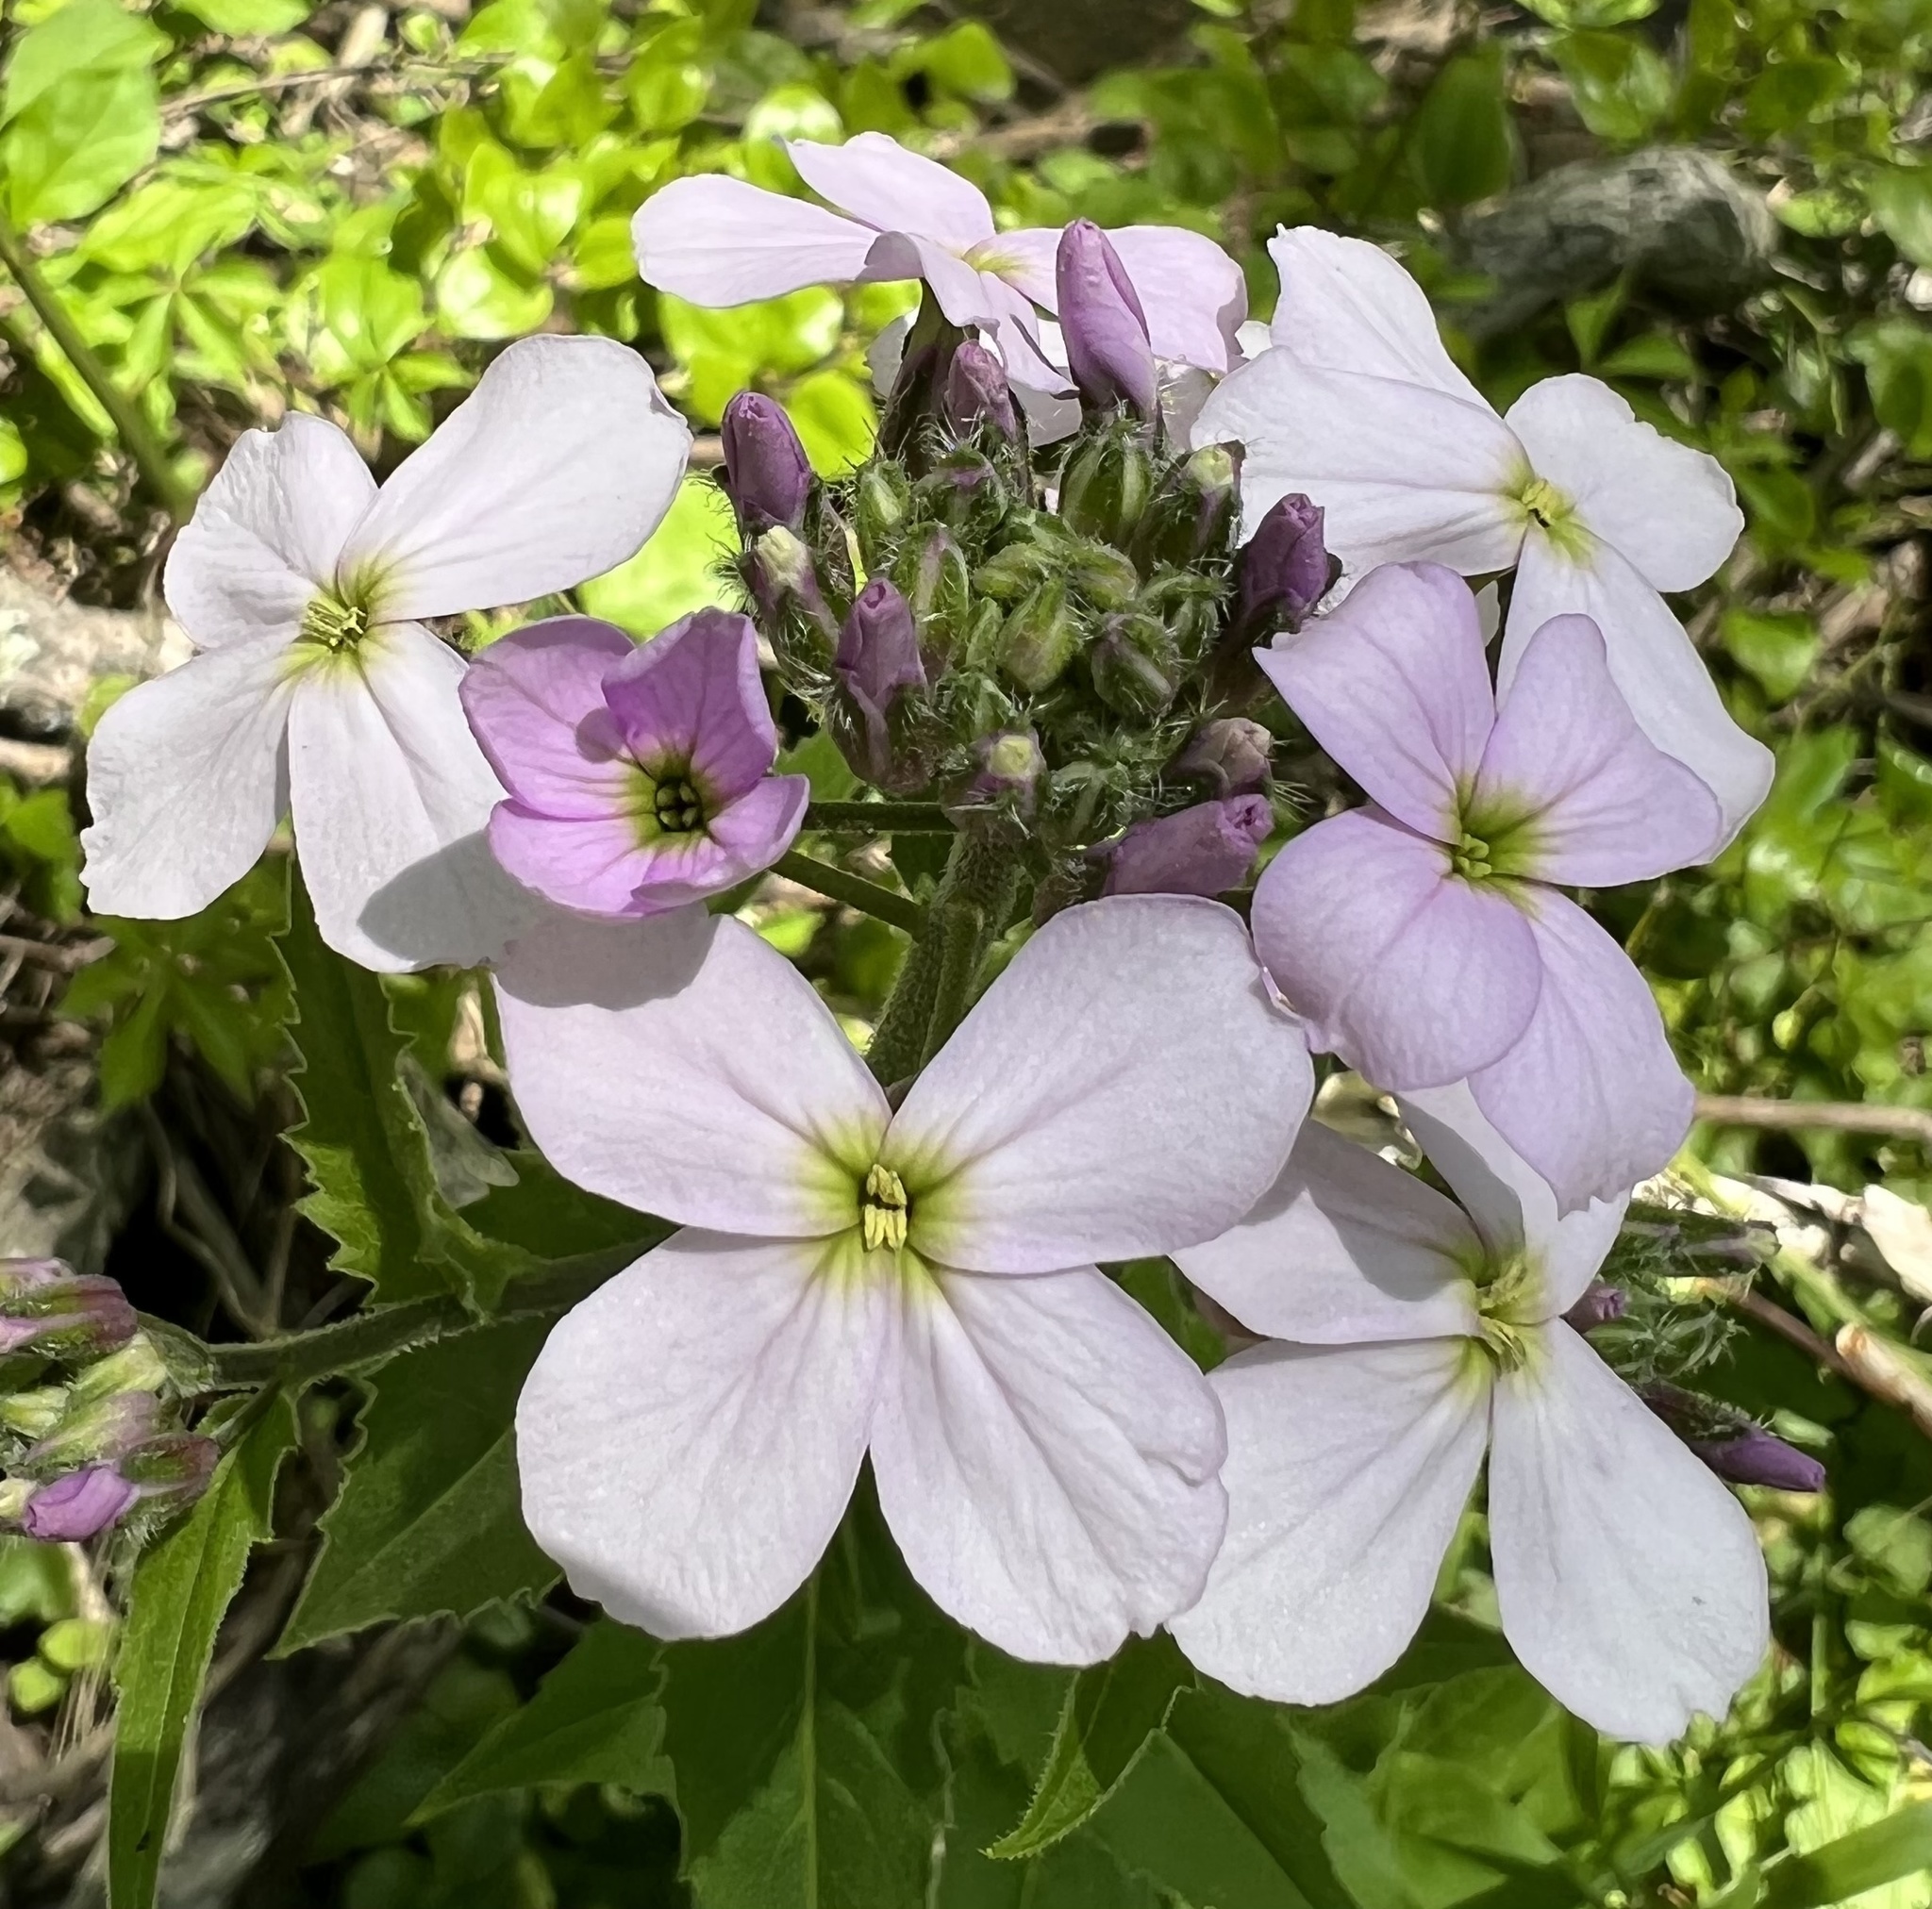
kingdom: Plantae
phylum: Tracheophyta
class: Magnoliopsida
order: Brassicales
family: Brassicaceae
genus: Hesperis
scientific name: Hesperis matronalis
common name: Dame's-violet
